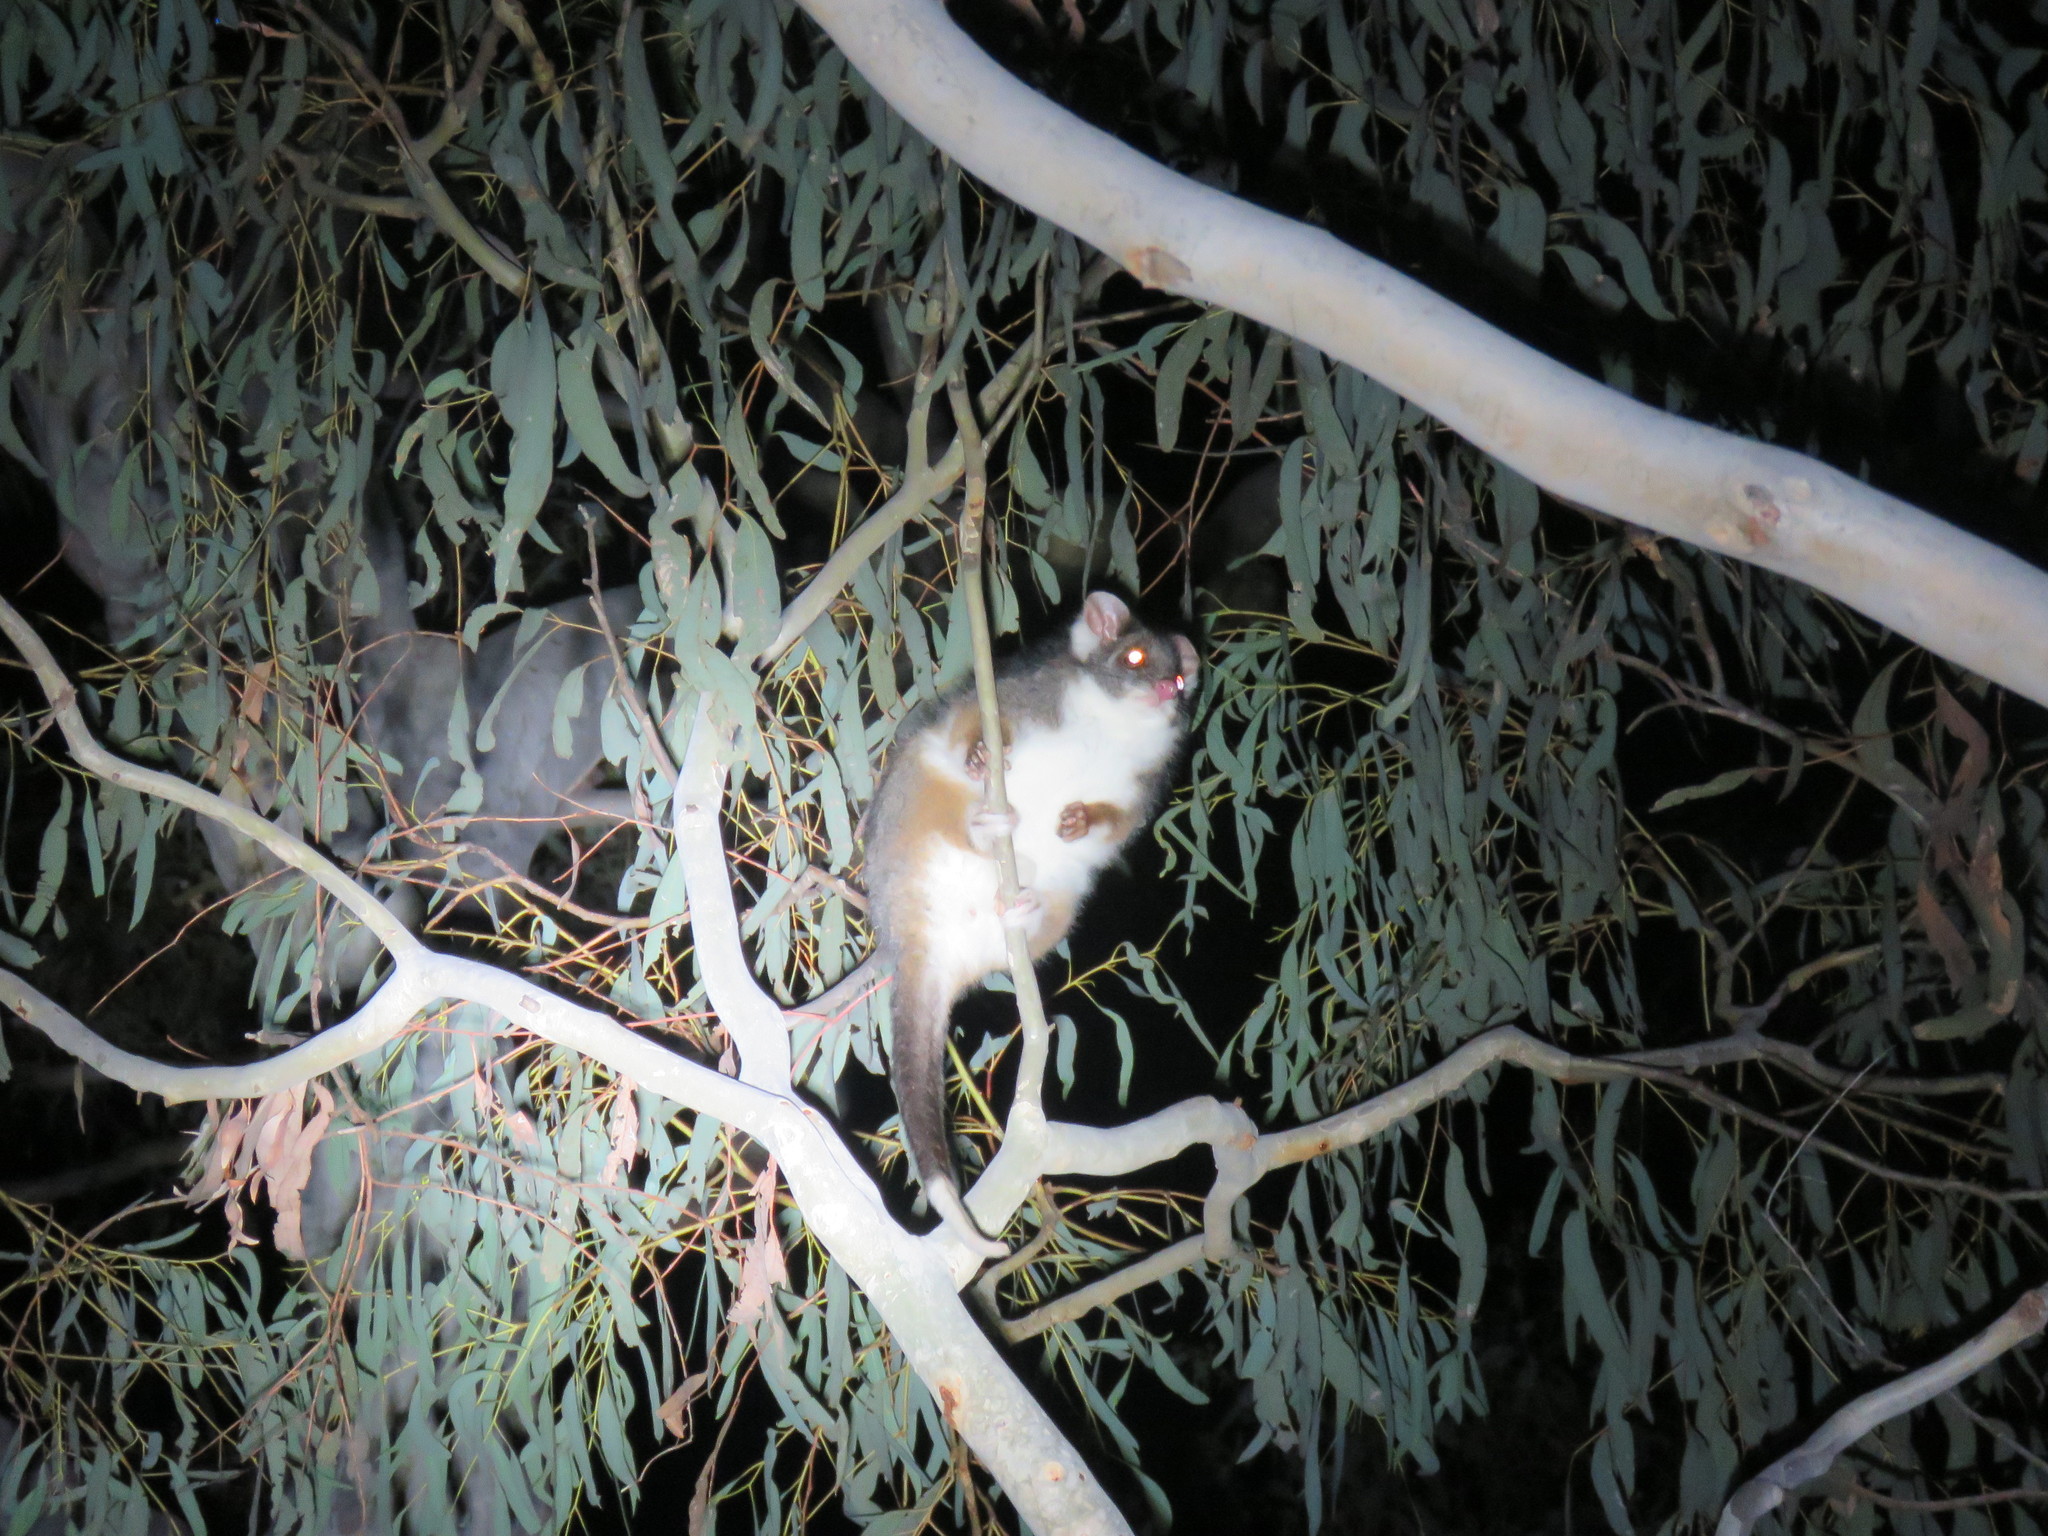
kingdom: Animalia
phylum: Chordata
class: Mammalia
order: Diprotodontia
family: Pseudocheiridae
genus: Pseudocheirus
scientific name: Pseudocheirus peregrinus
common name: Common ringtail possum
